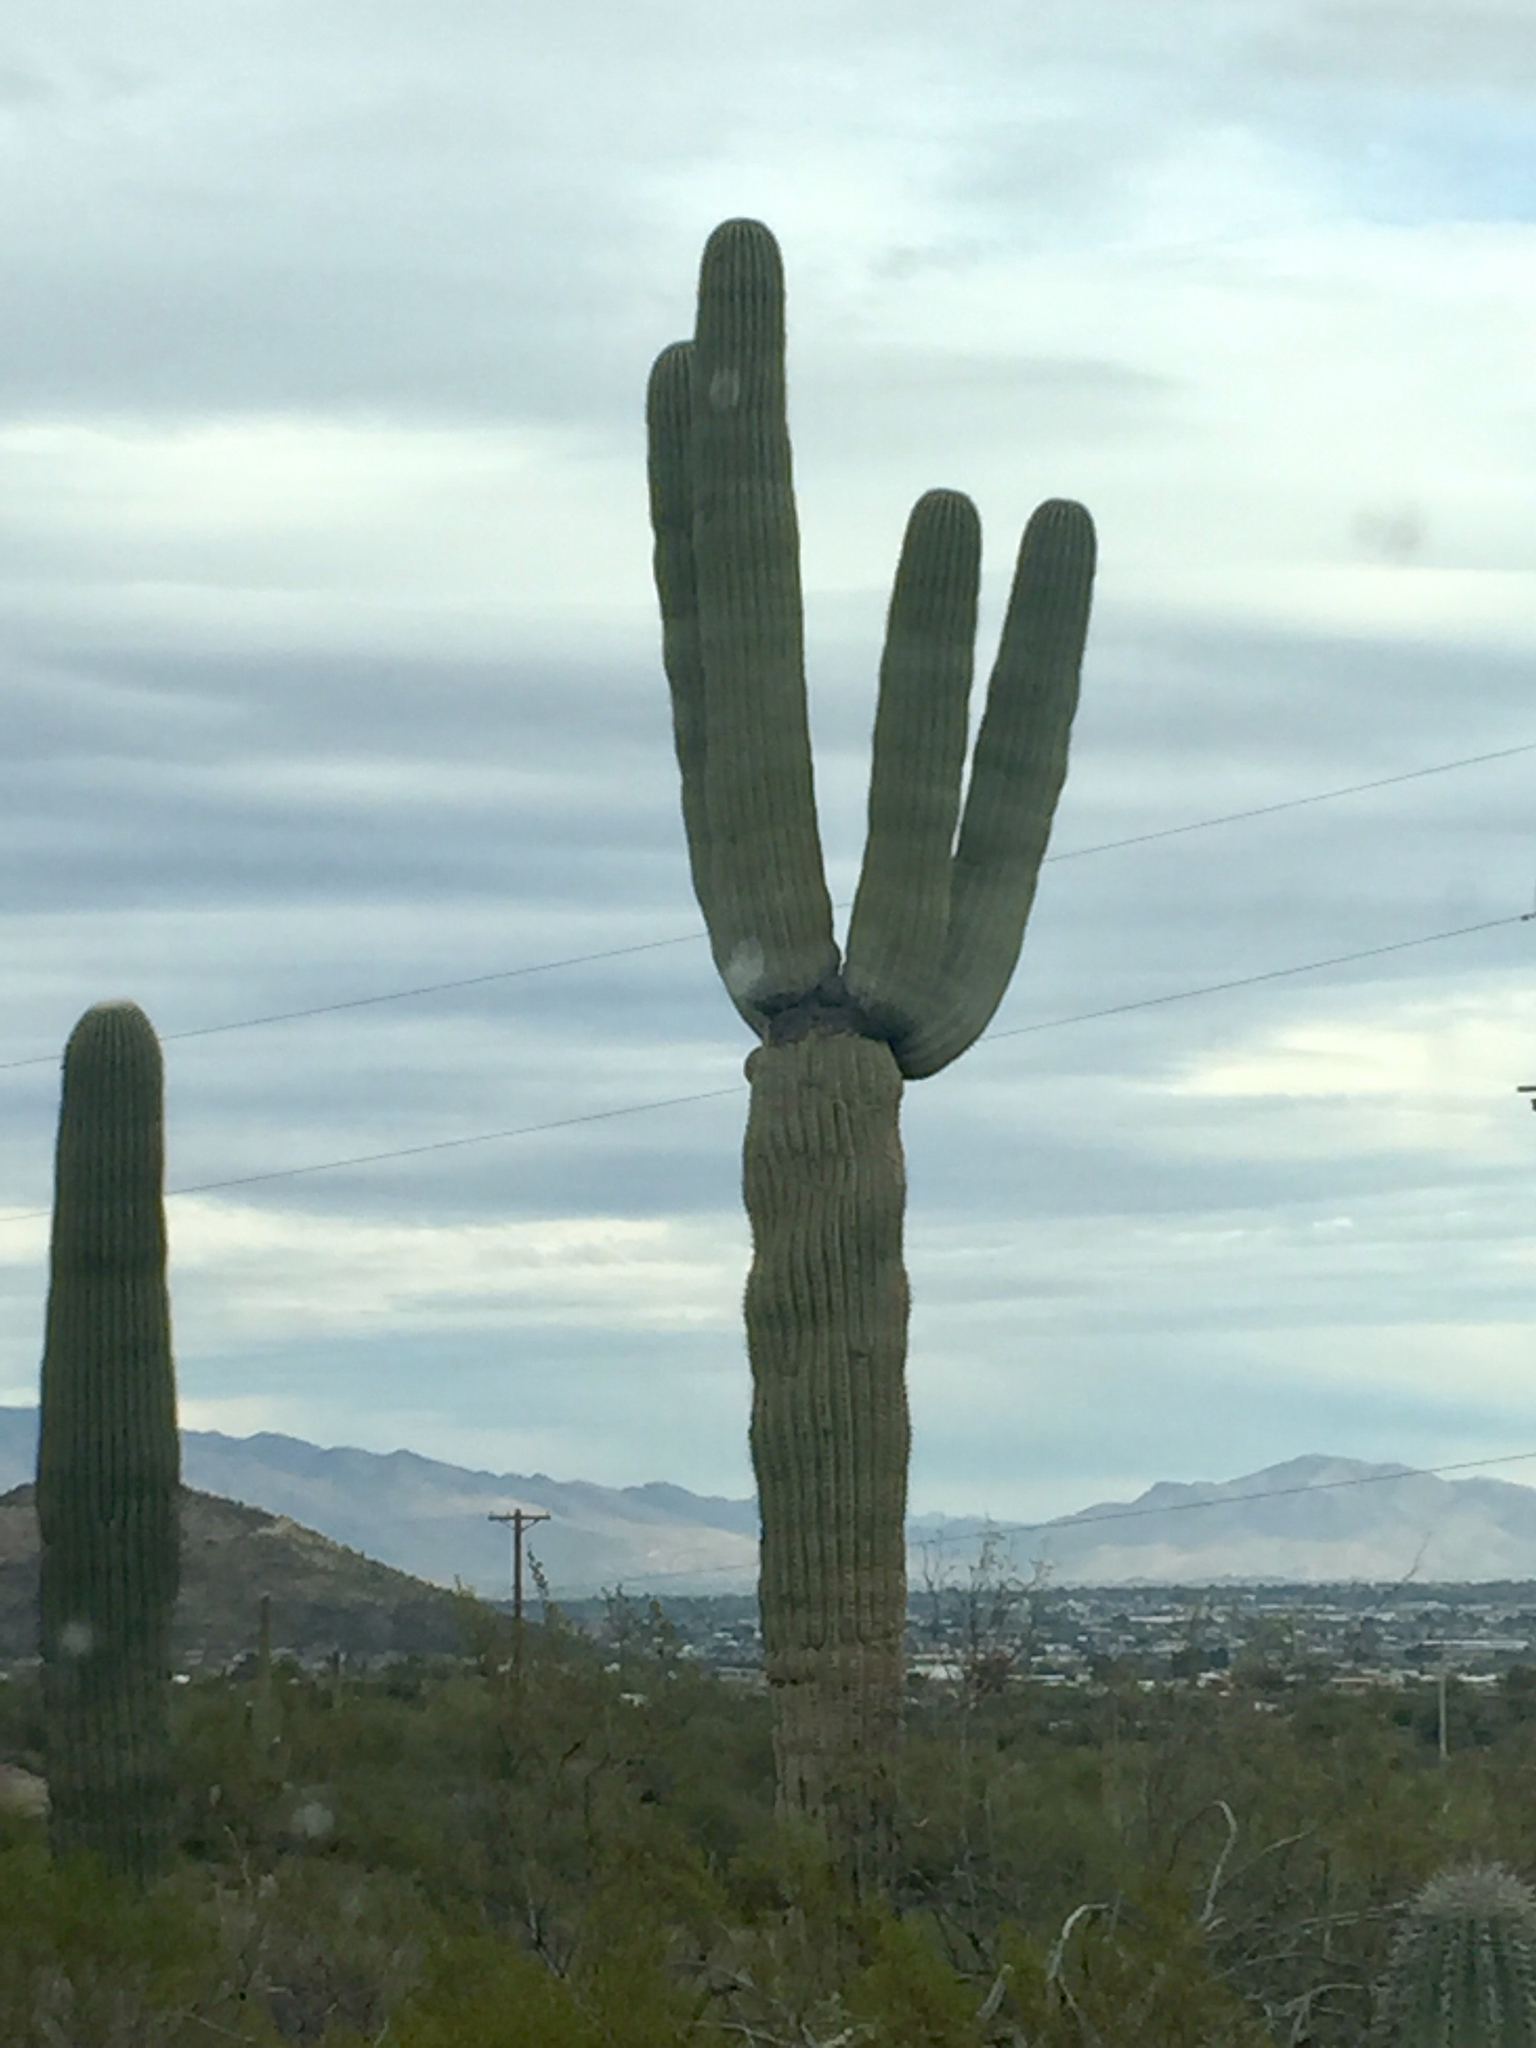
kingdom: Plantae
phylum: Tracheophyta
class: Magnoliopsida
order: Caryophyllales
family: Cactaceae
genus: Carnegiea
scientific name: Carnegiea gigantea
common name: Saguaro
